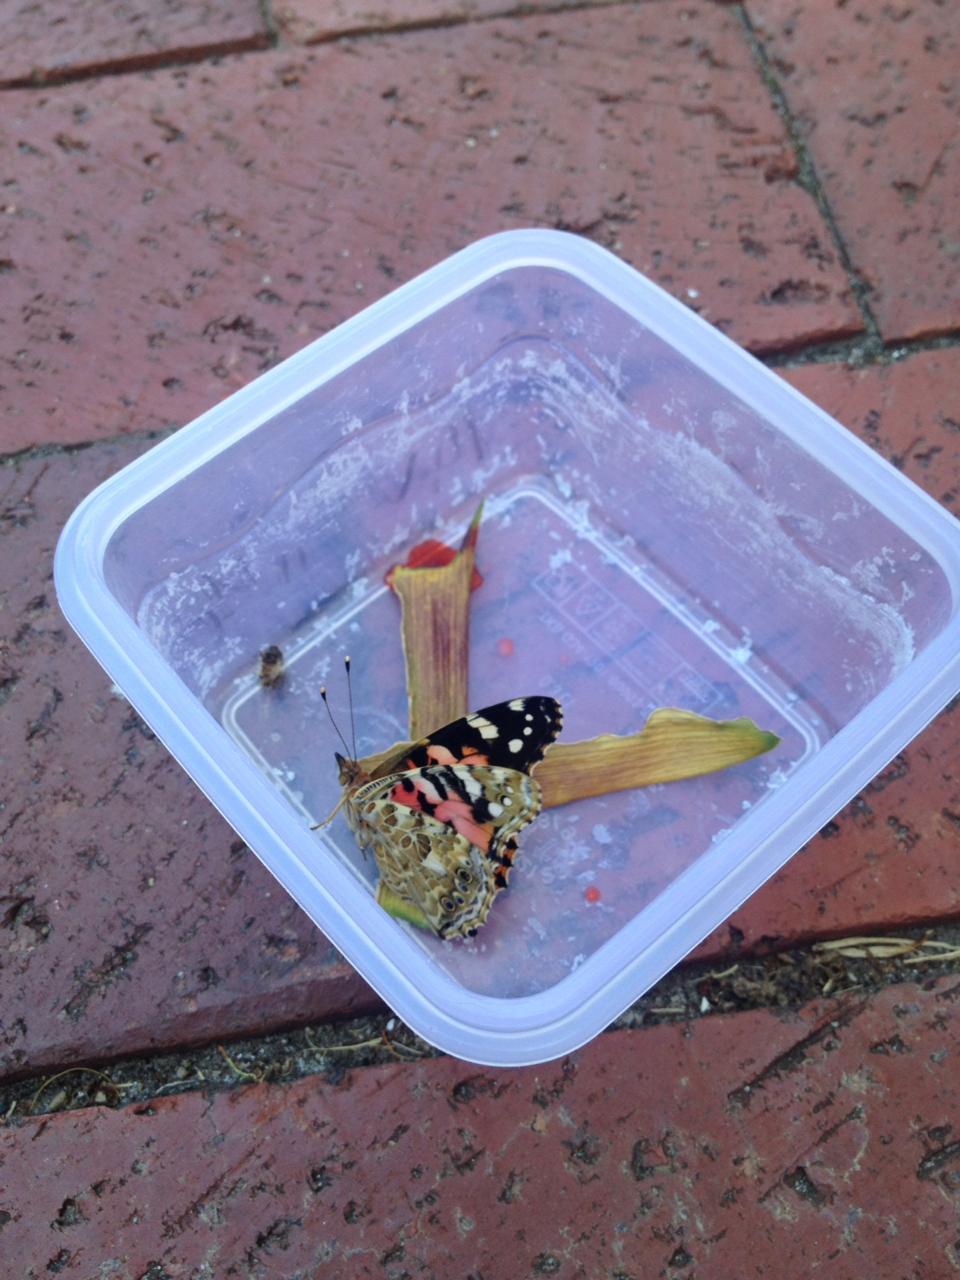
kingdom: Animalia
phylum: Arthropoda
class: Insecta
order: Lepidoptera
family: Nymphalidae
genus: Vanessa
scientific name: Vanessa cardui
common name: Painted lady
